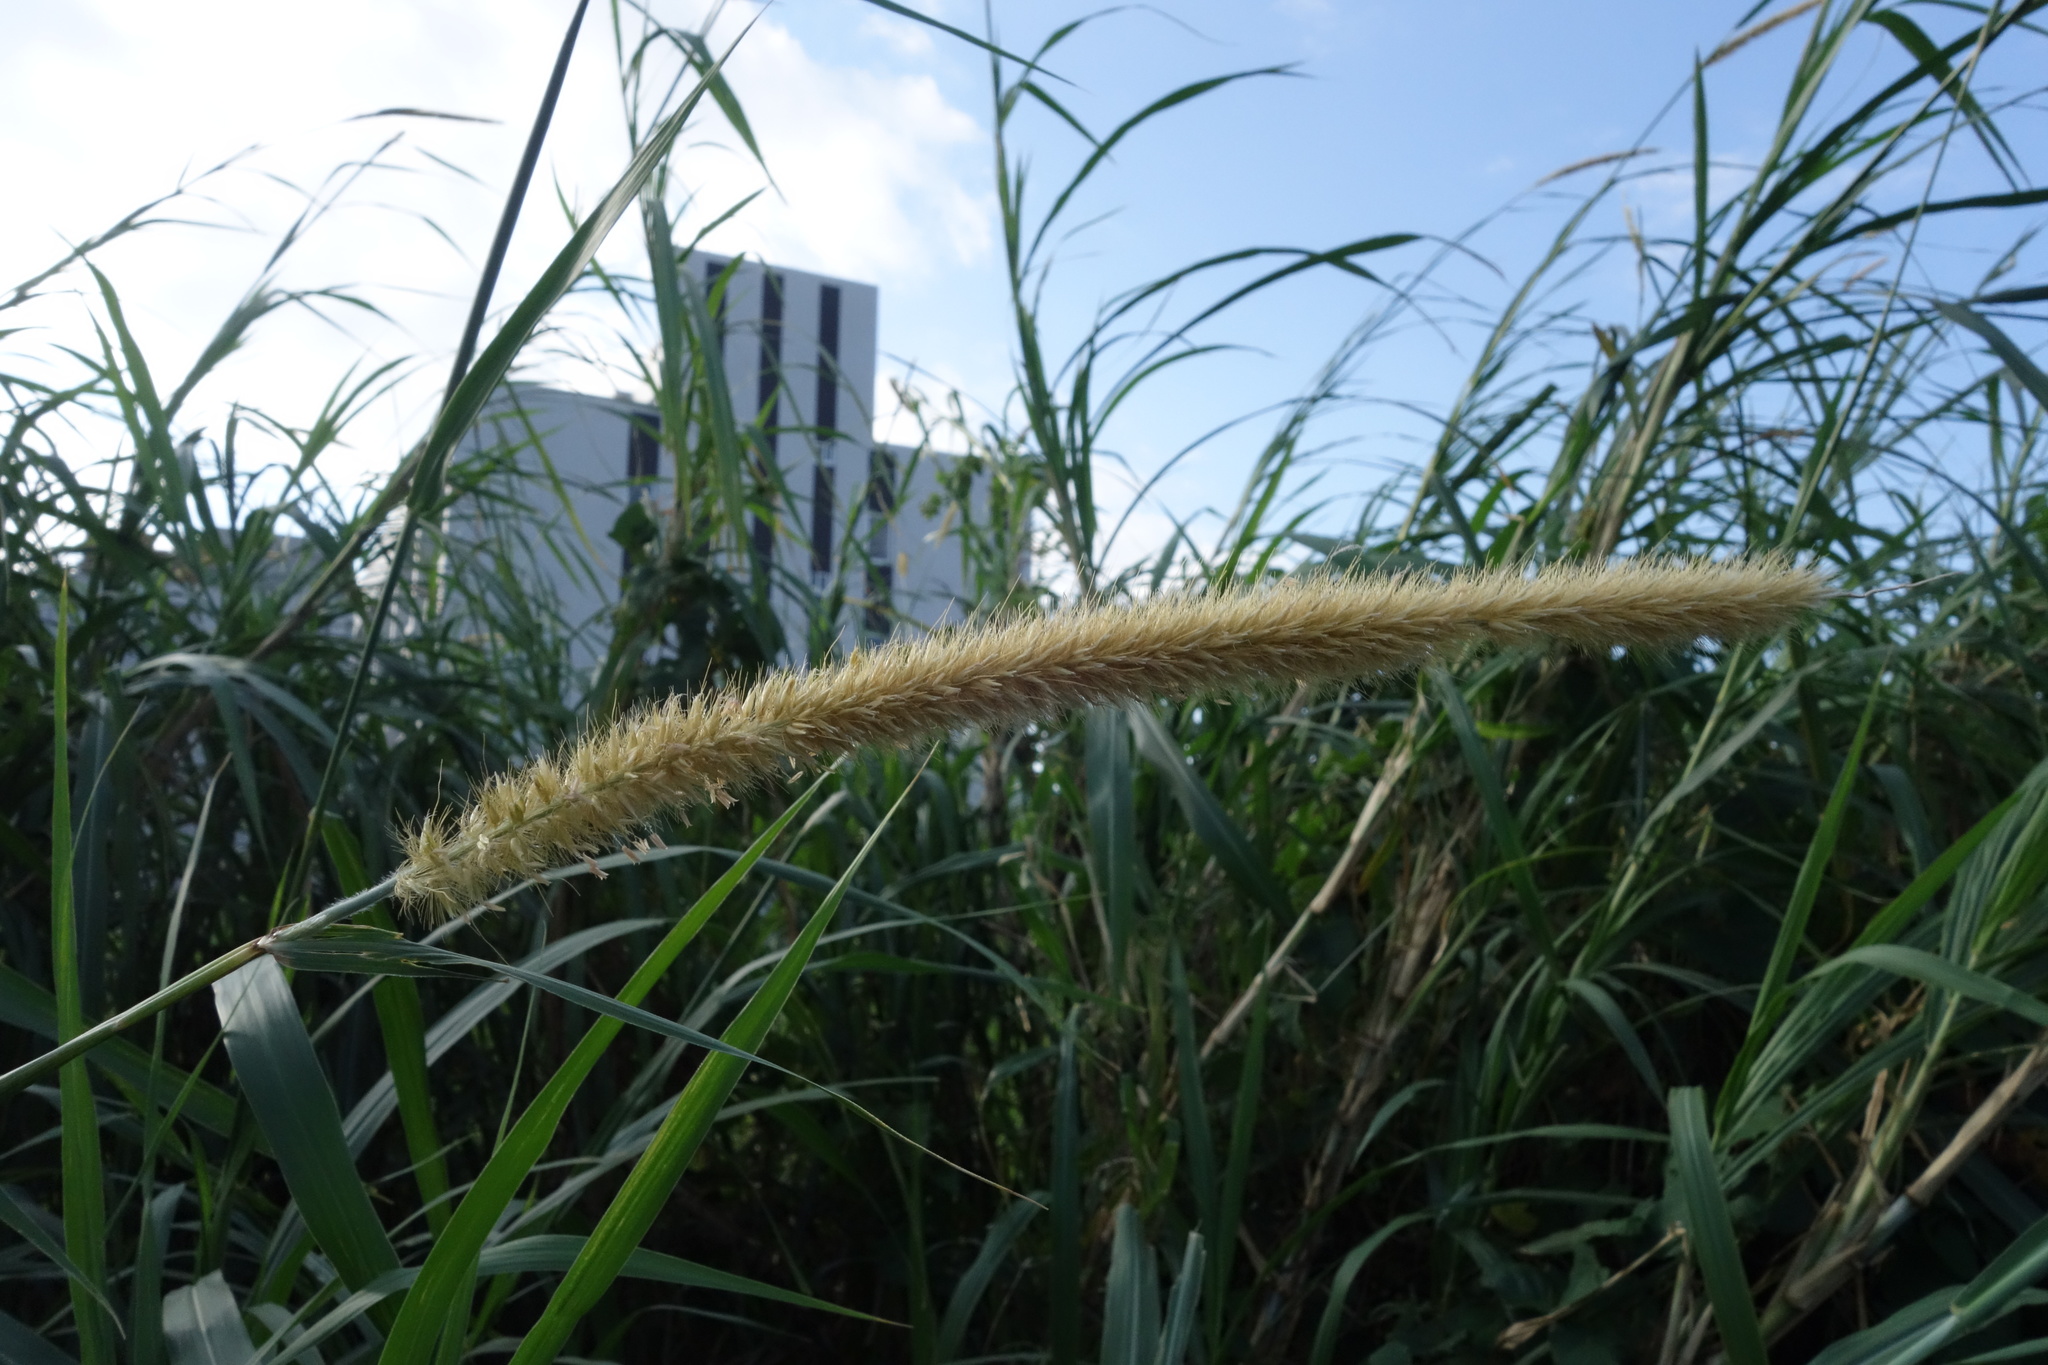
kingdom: Plantae
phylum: Tracheophyta
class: Liliopsida
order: Poales
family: Poaceae
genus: Cenchrus
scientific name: Cenchrus purpureus
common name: Elephant grass
